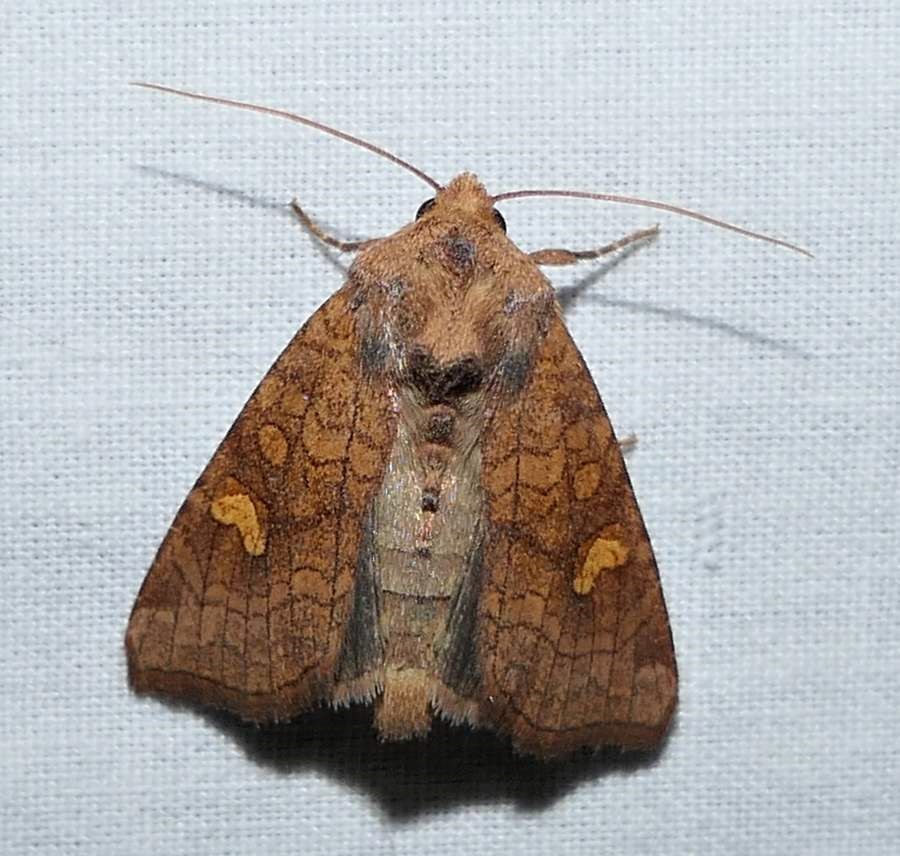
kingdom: Animalia
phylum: Arthropoda
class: Insecta
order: Lepidoptera
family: Noctuidae
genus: Amphipoea
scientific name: Amphipoea americana
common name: American ear moth
